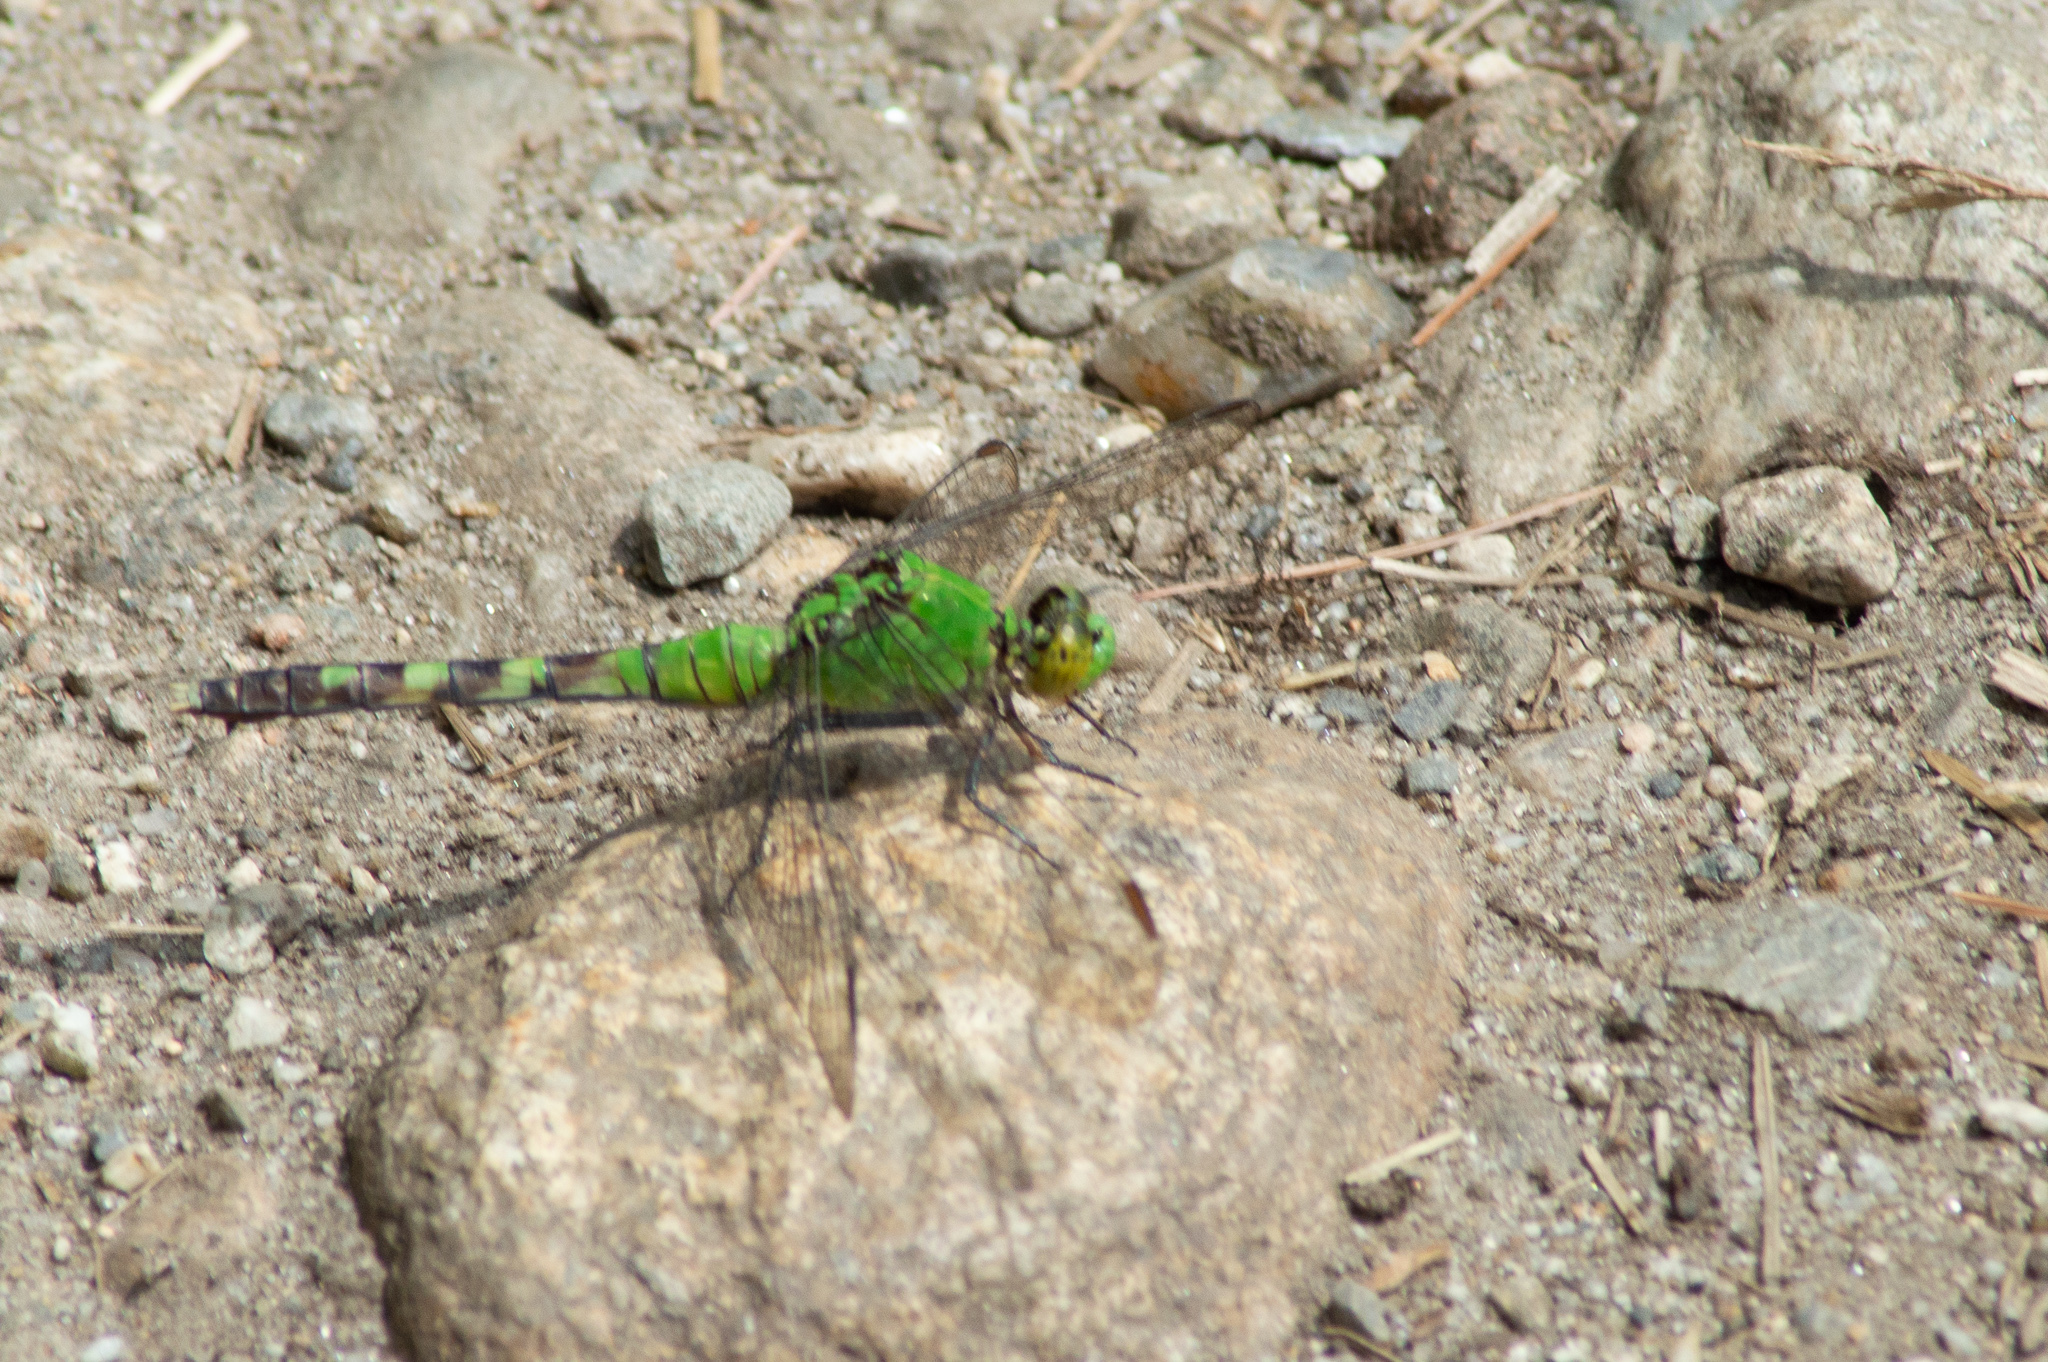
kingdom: Animalia
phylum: Arthropoda
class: Insecta
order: Odonata
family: Libellulidae
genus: Erythemis
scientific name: Erythemis simplicicollis
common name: Eastern pondhawk
